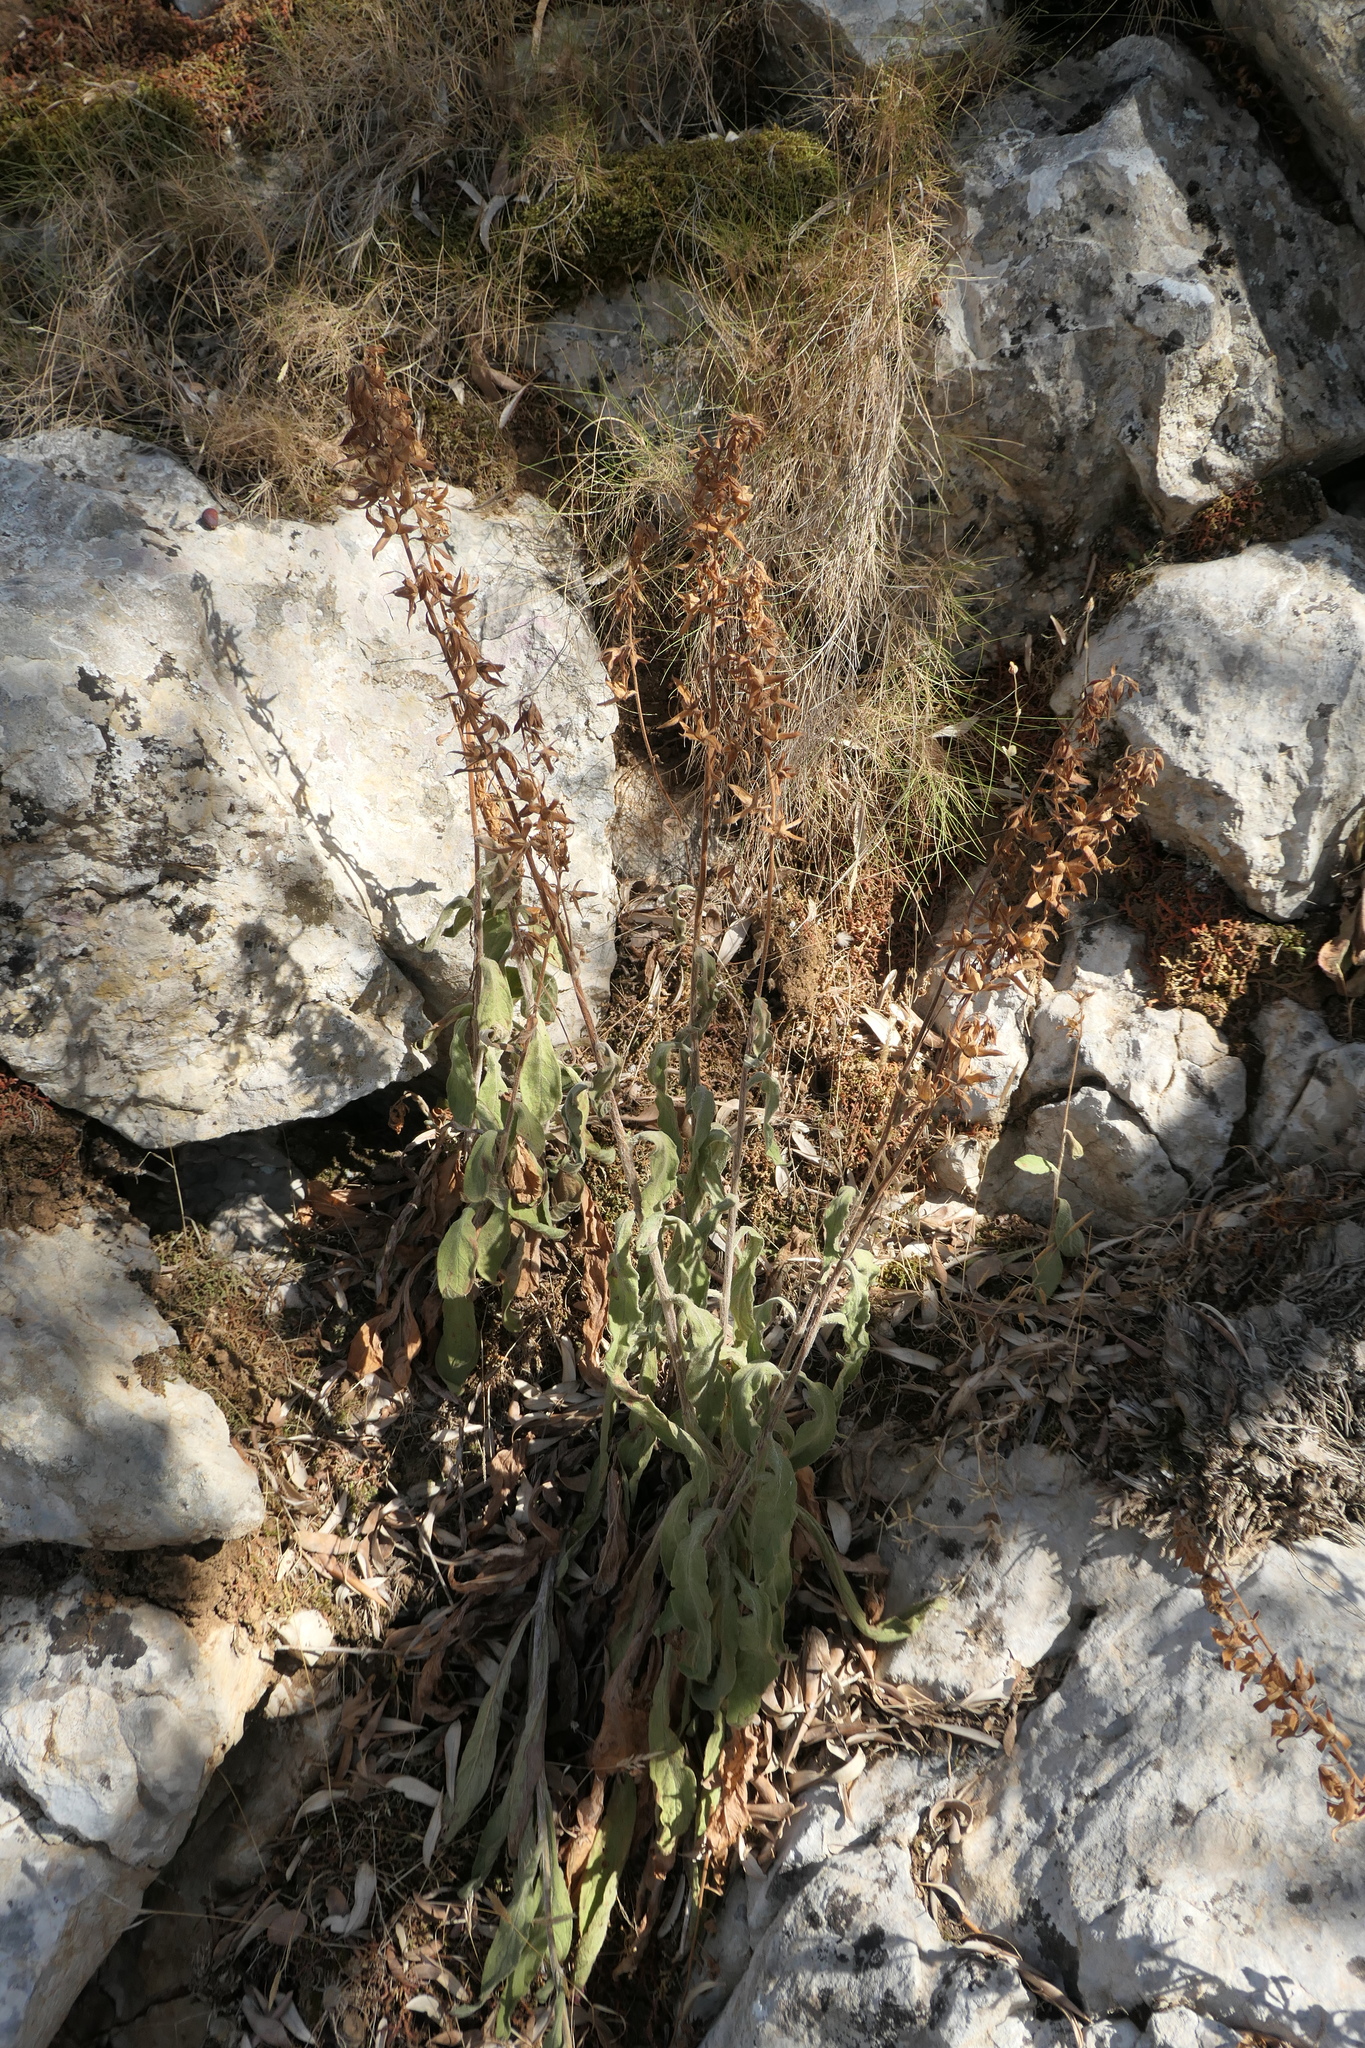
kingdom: Plantae
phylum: Tracheophyta
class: Magnoliopsida
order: Lamiales
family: Plantaginaceae
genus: Digitalis
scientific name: Digitalis minor
